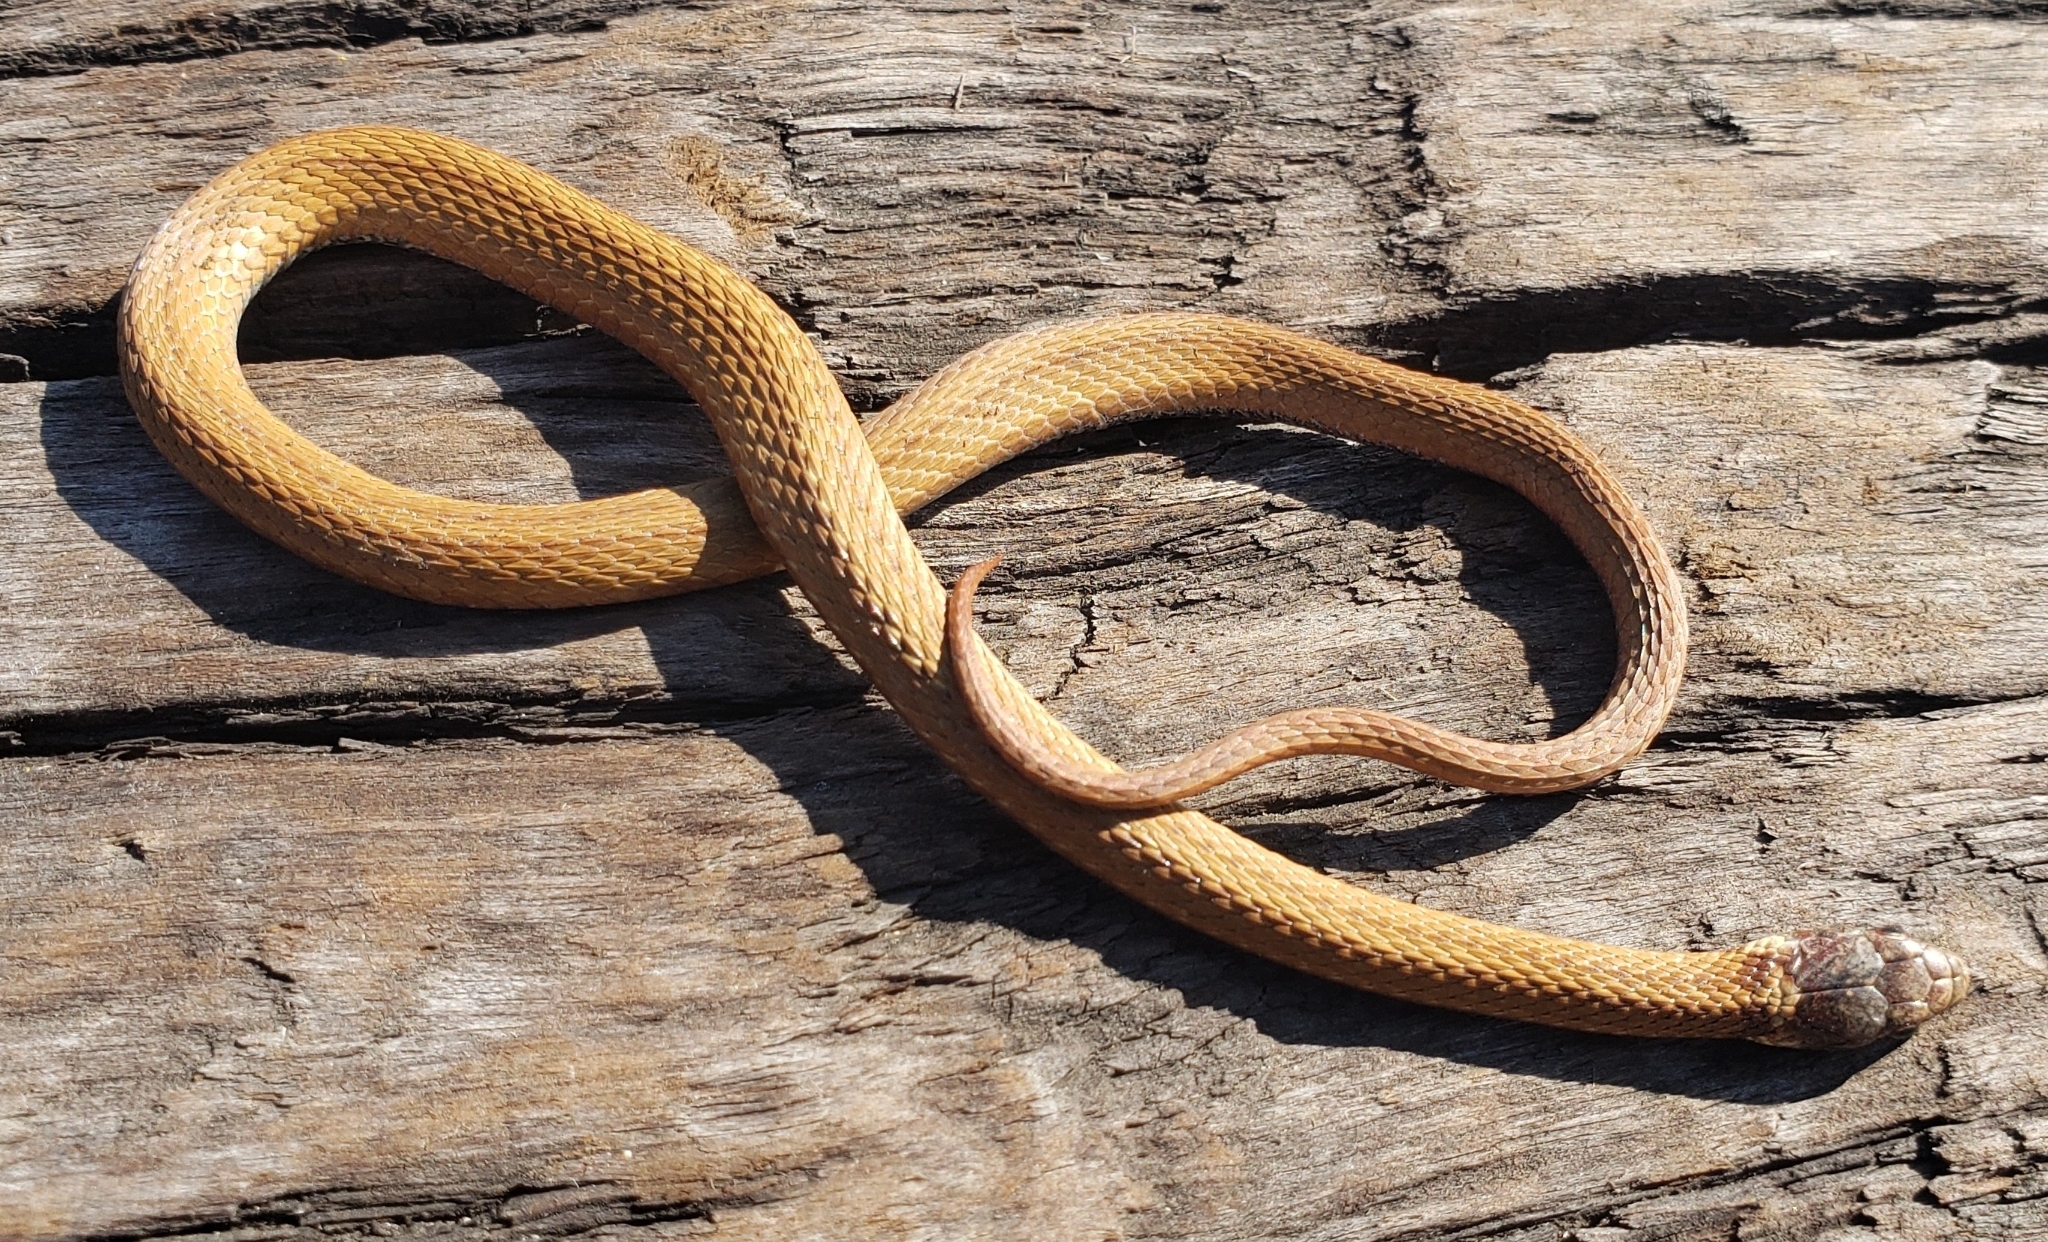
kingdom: Animalia
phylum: Chordata
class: Squamata
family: Colubridae
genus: Storeria
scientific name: Storeria occipitomaculata
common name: Redbelly snake
